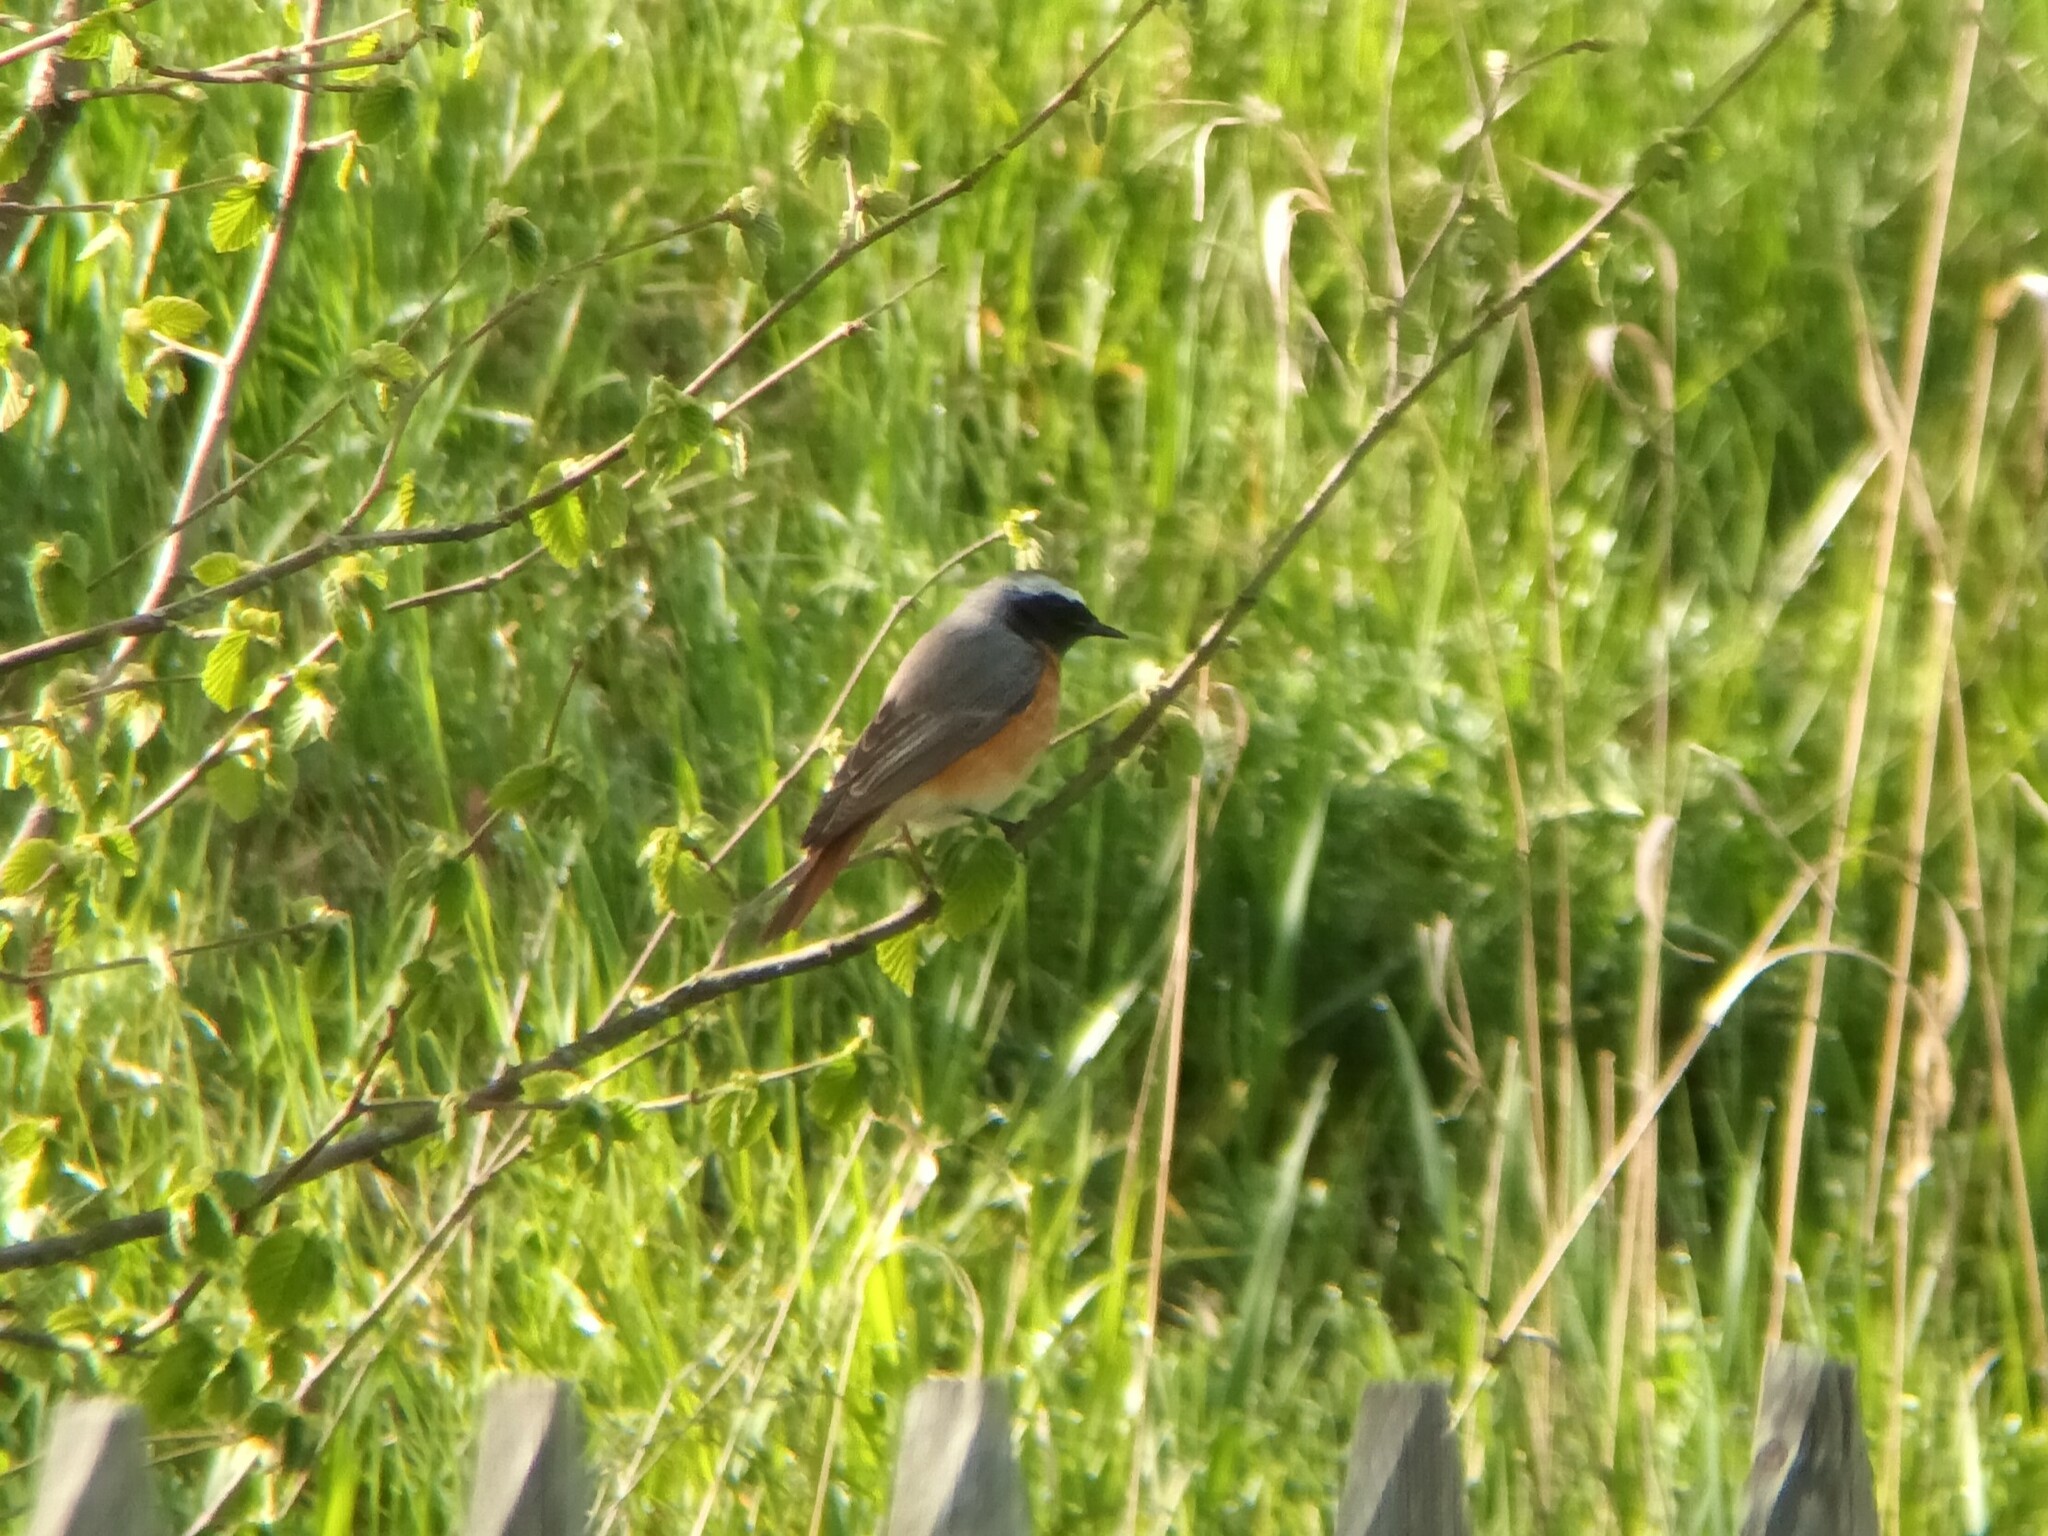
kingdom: Animalia
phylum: Chordata
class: Aves
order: Passeriformes
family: Muscicapidae
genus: Phoenicurus
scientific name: Phoenicurus phoenicurus
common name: Common redstart
